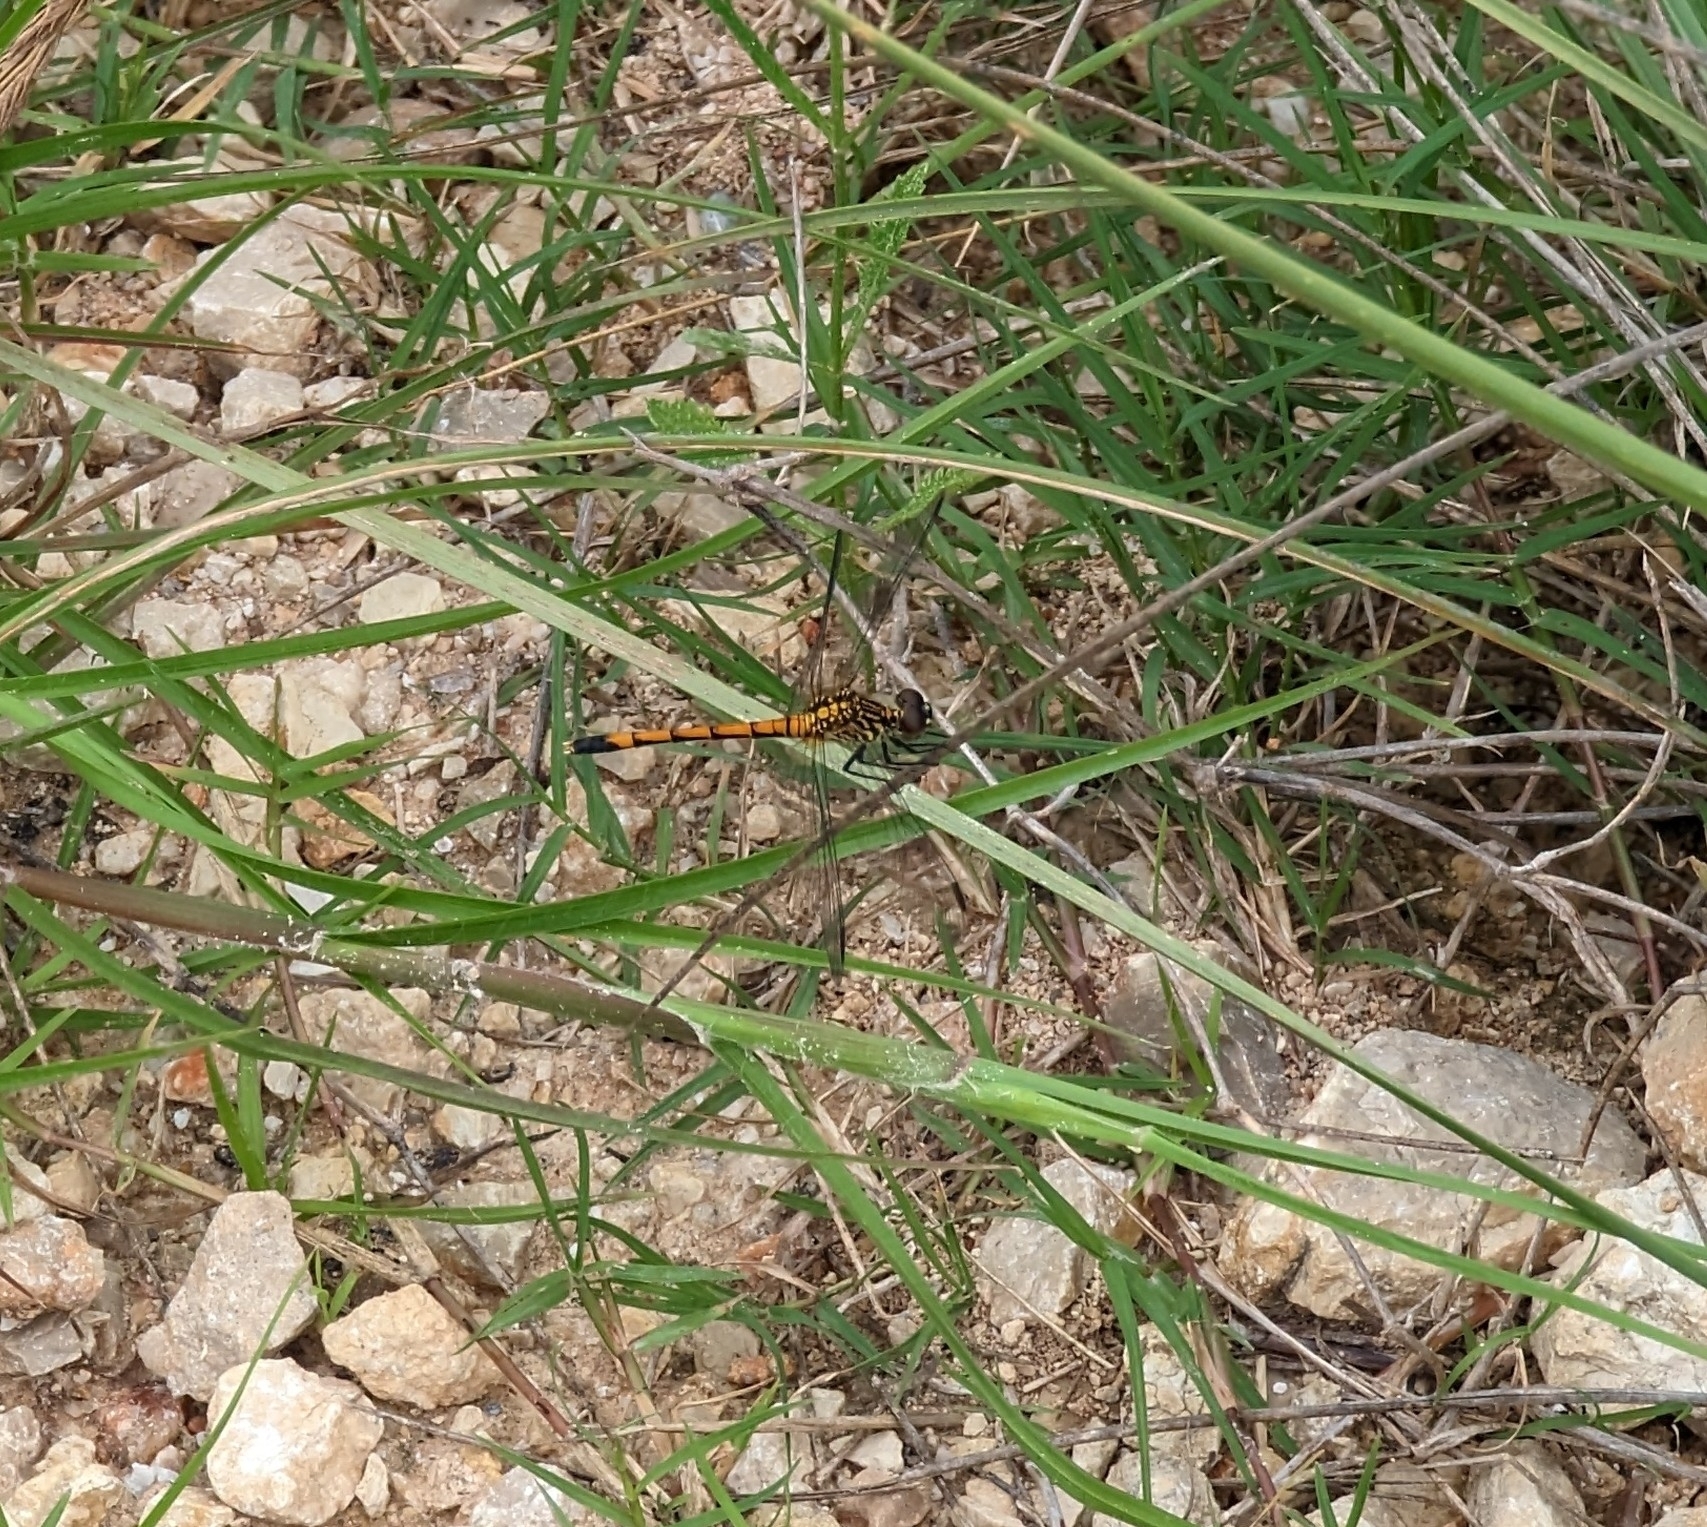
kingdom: Animalia
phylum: Arthropoda
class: Insecta
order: Odonata
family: Libellulidae
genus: Erythrodiplax
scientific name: Erythrodiplax berenice
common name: Seaside dragonlet
